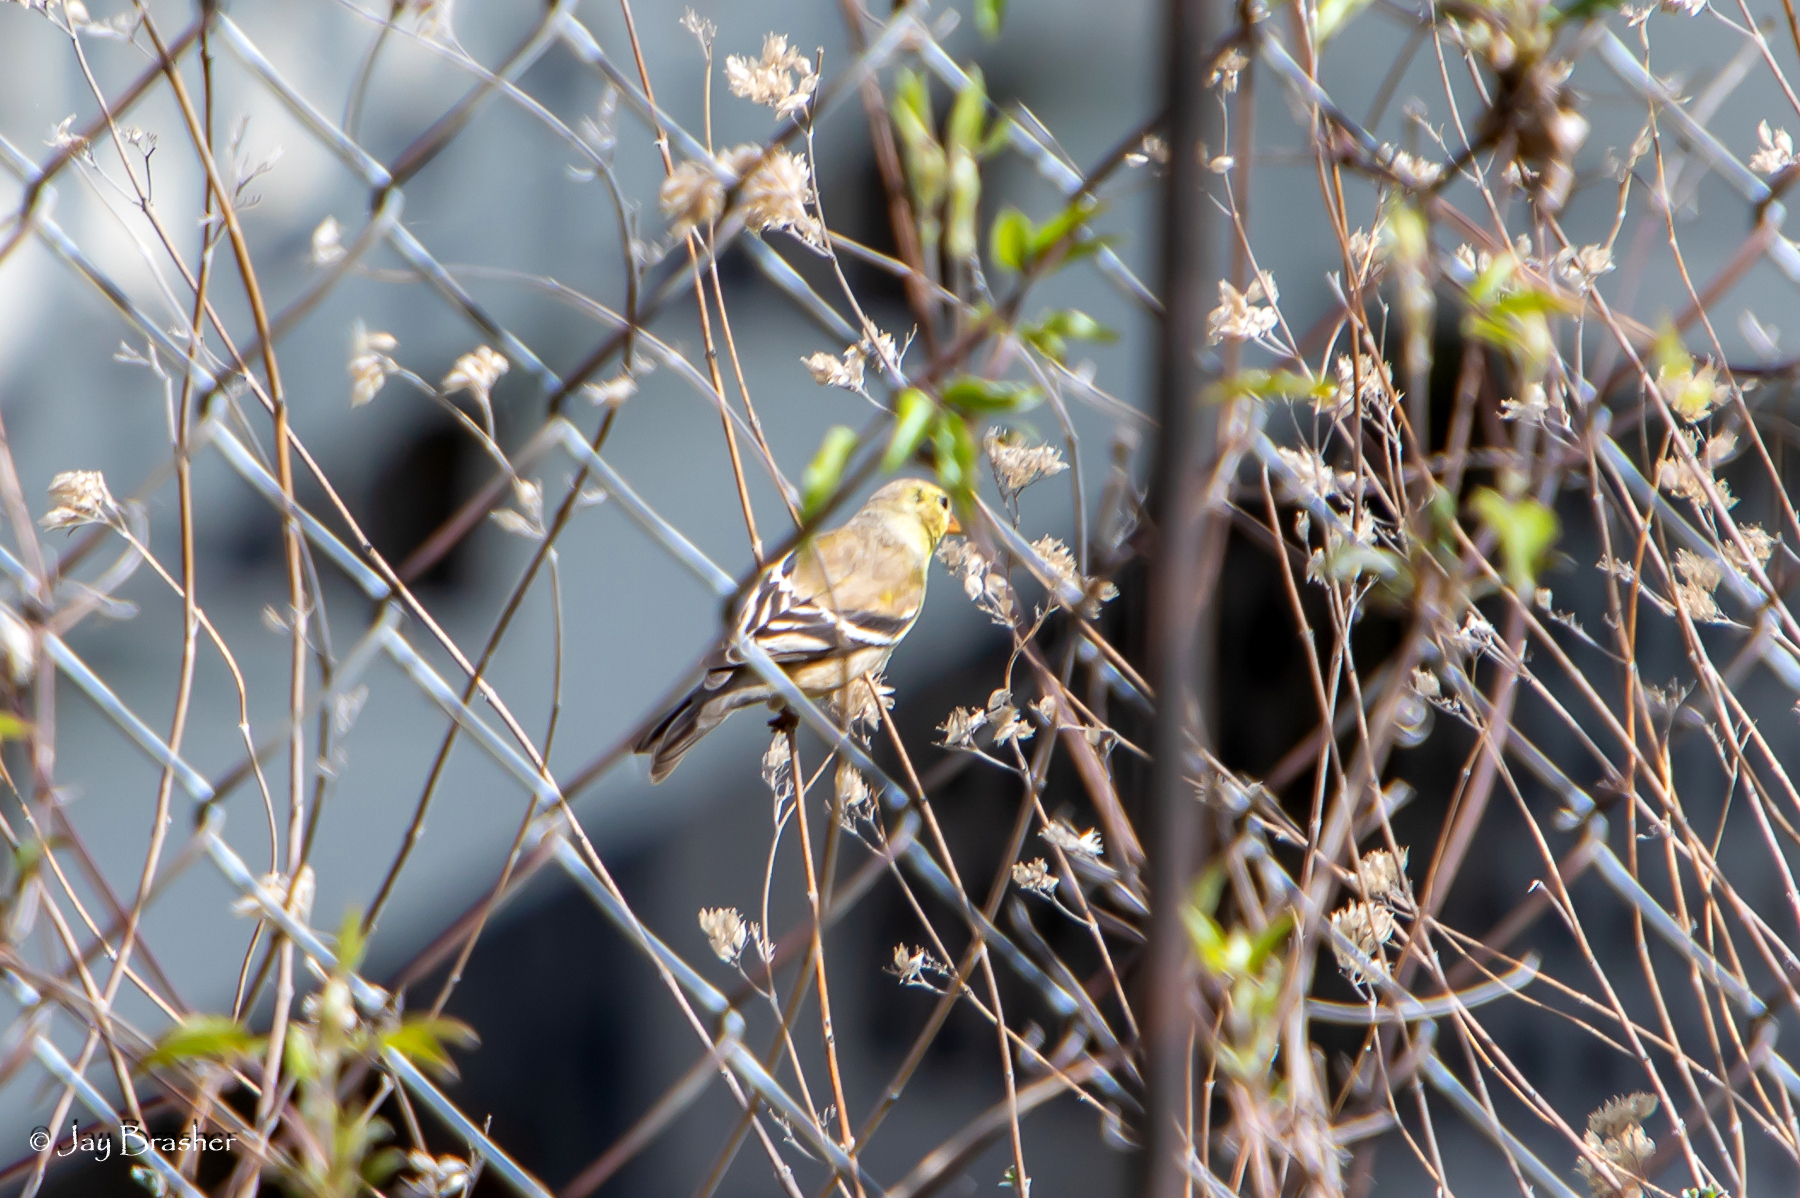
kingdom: Animalia
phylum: Chordata
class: Aves
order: Passeriformes
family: Fringillidae
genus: Spinus
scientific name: Spinus tristis
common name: American goldfinch
